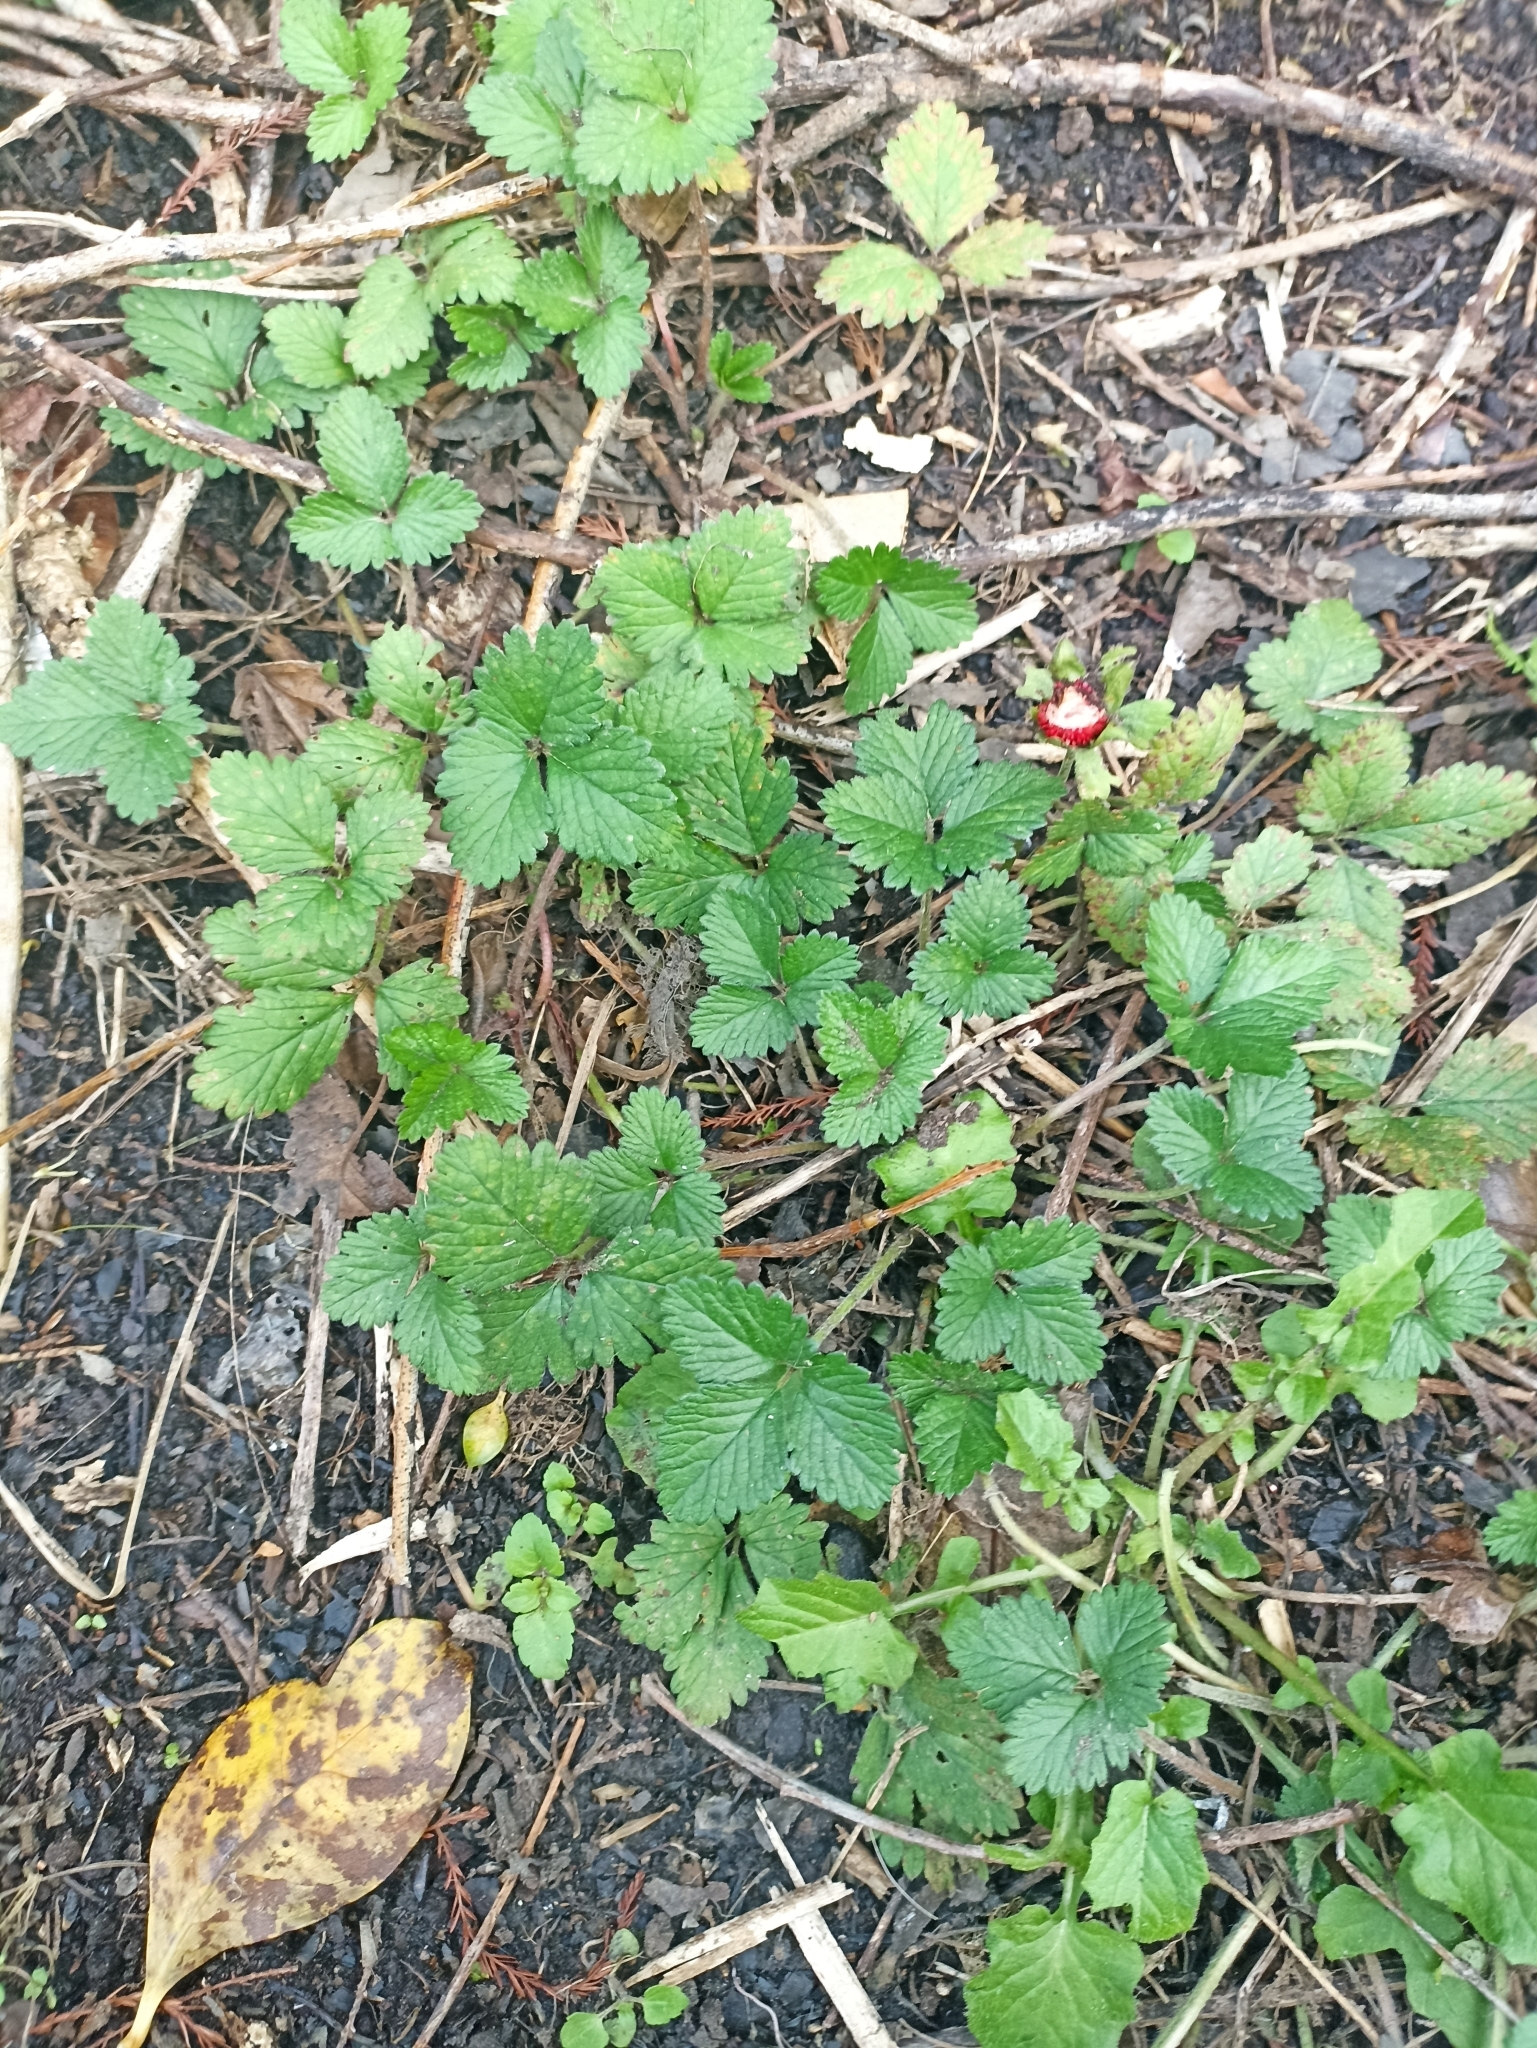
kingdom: Plantae
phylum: Tracheophyta
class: Magnoliopsida
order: Rosales
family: Rosaceae
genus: Potentilla
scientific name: Potentilla indica
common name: Yellow-flowered strawberry
